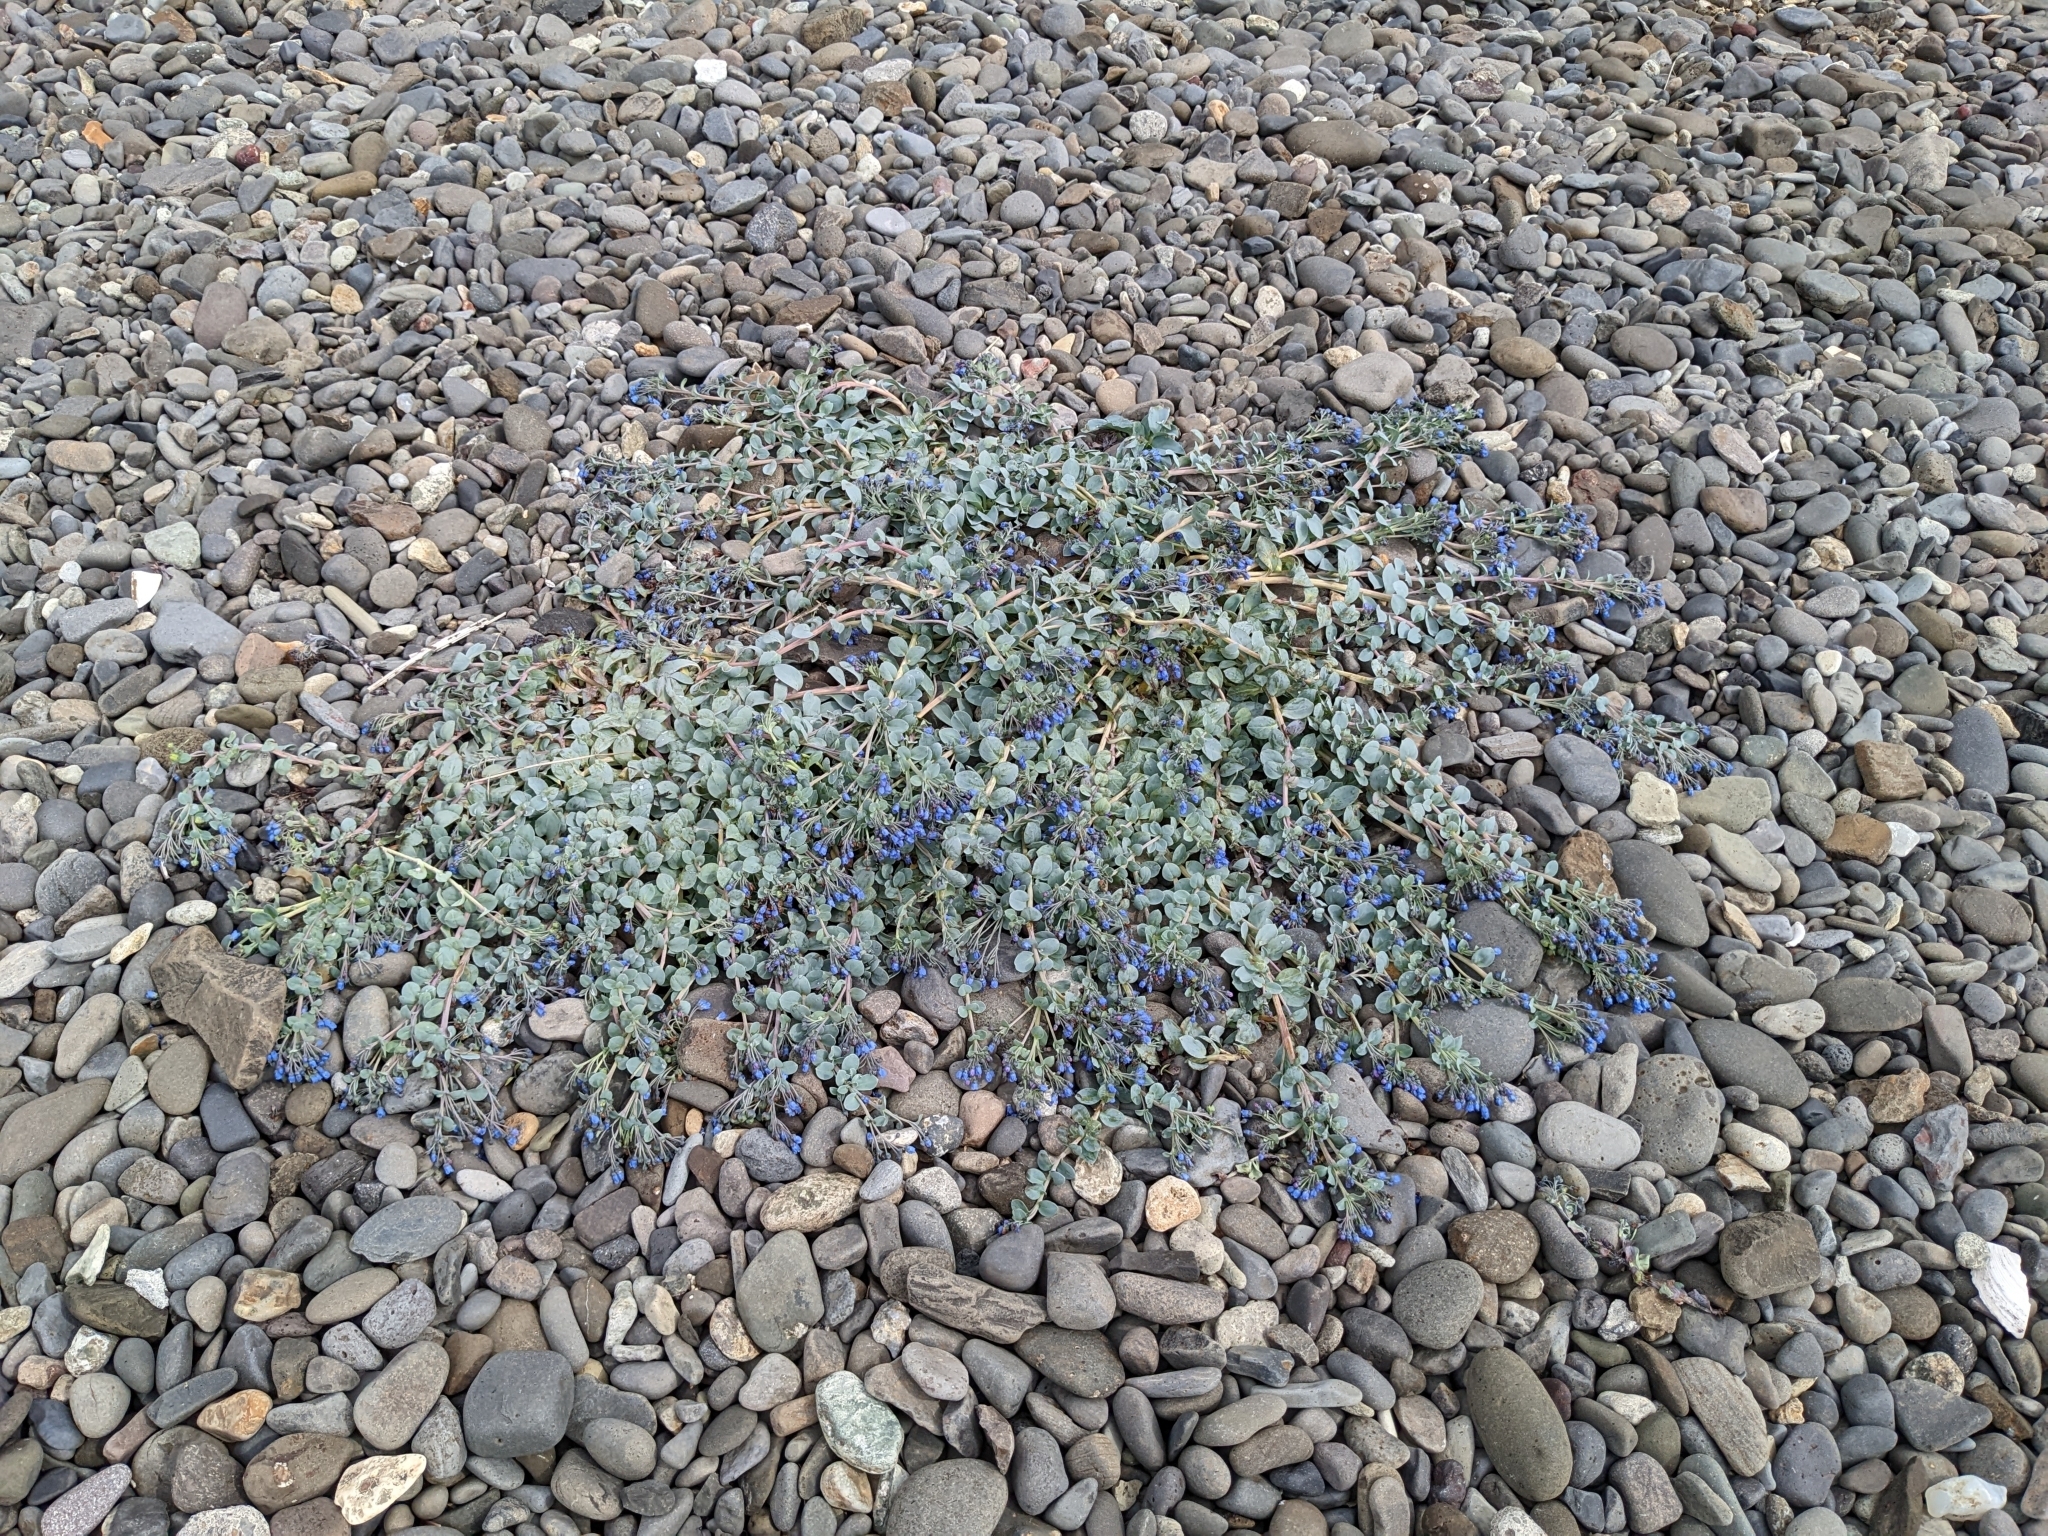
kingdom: Plantae
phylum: Tracheophyta
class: Magnoliopsida
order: Boraginales
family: Boraginaceae
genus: Mertensia
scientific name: Mertensia maritima
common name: Oysterplant
